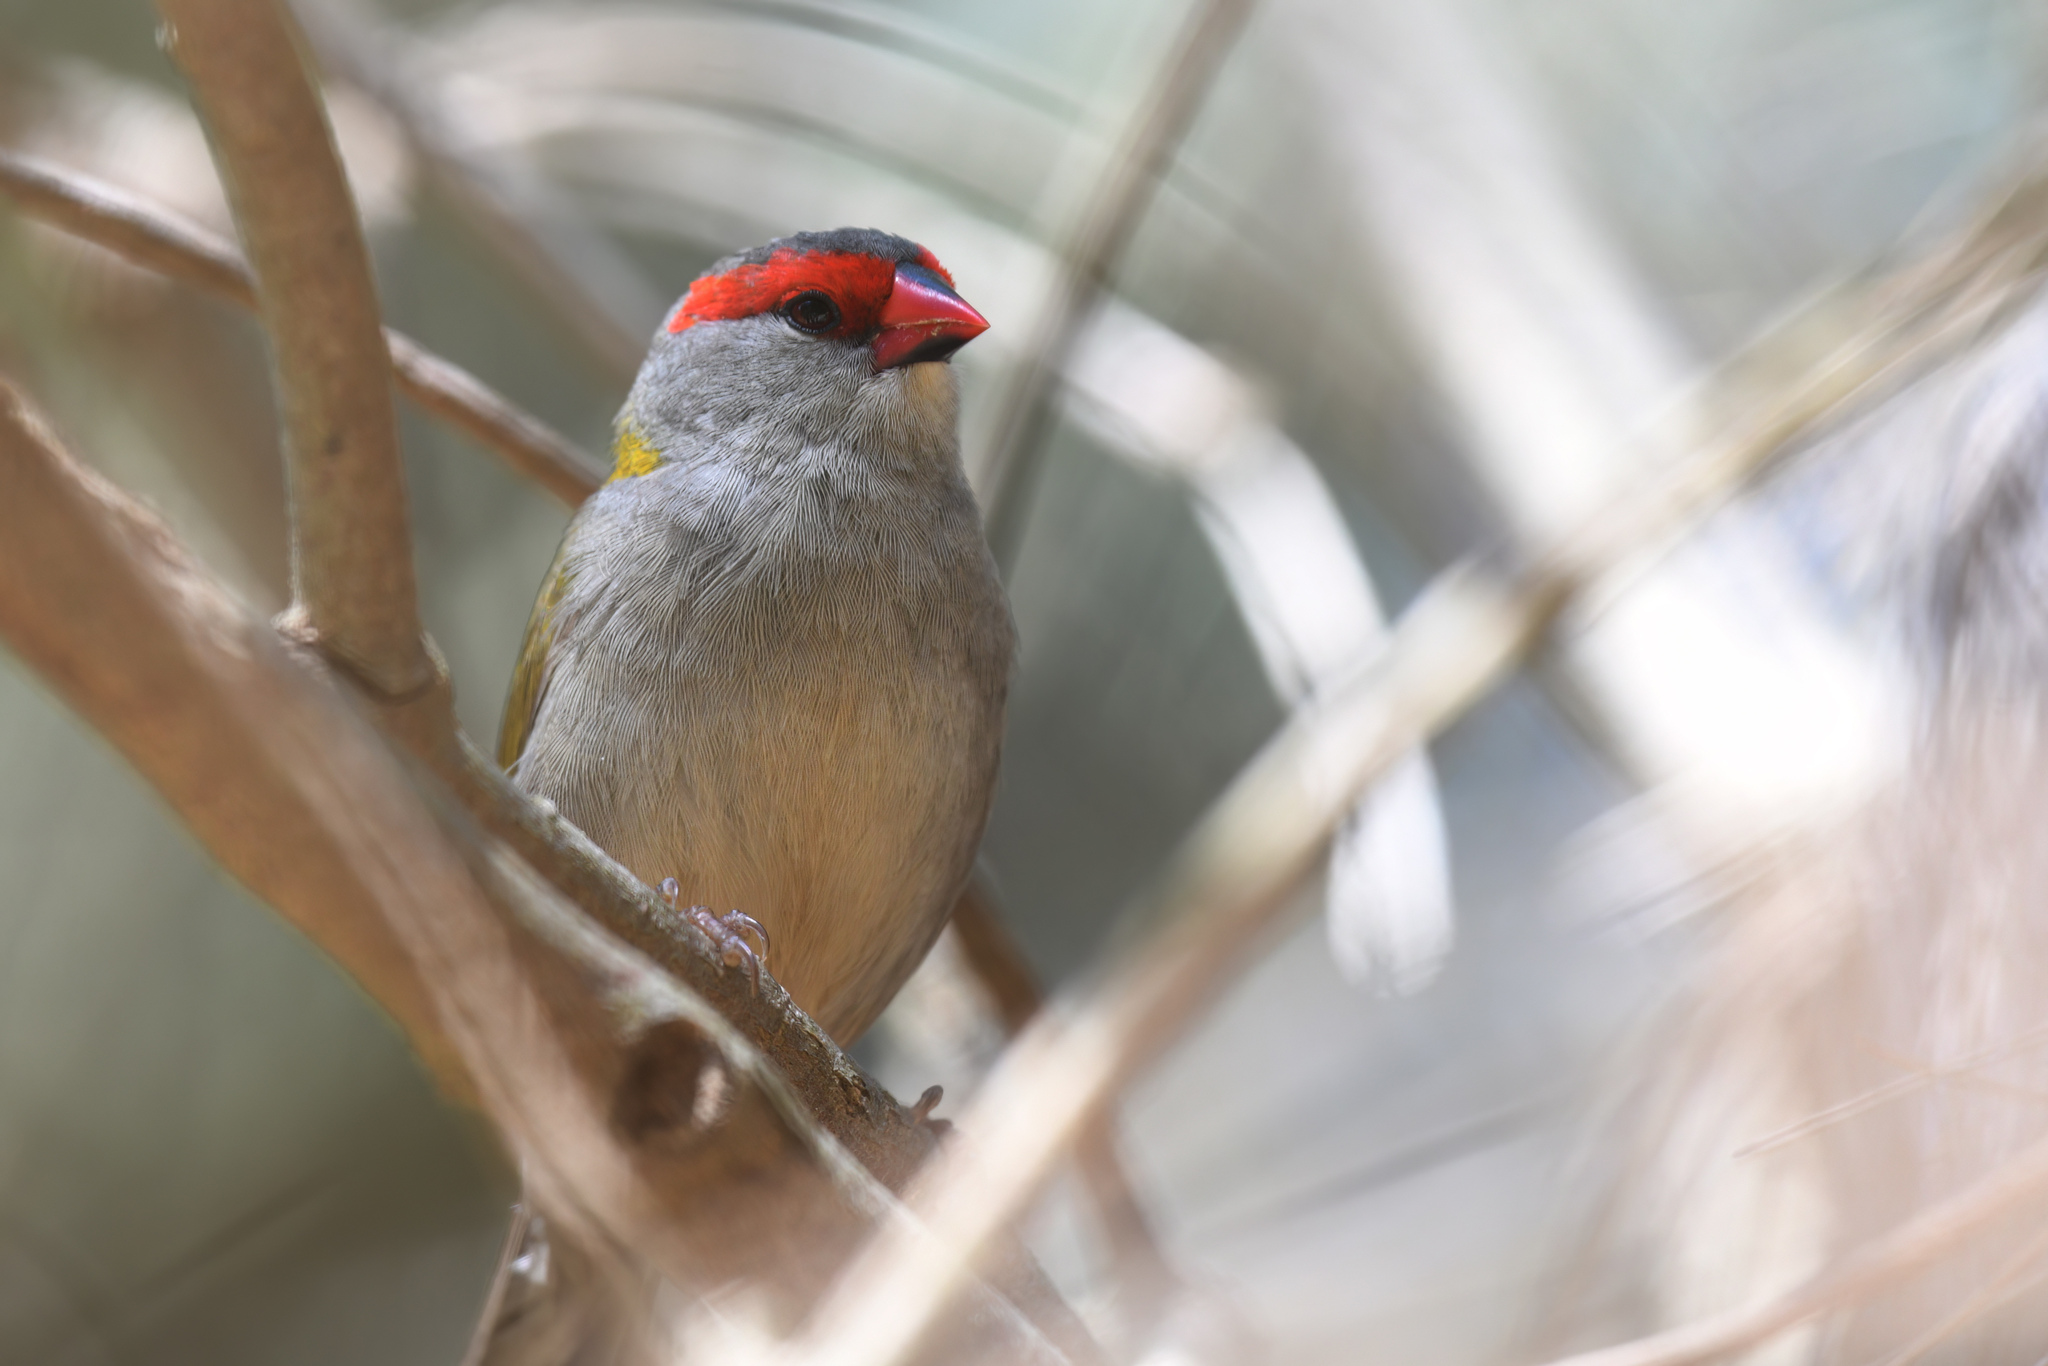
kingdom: Animalia
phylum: Chordata
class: Aves
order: Passeriformes
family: Estrildidae
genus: Neochmia
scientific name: Neochmia temporalis
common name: Red-browed finch
